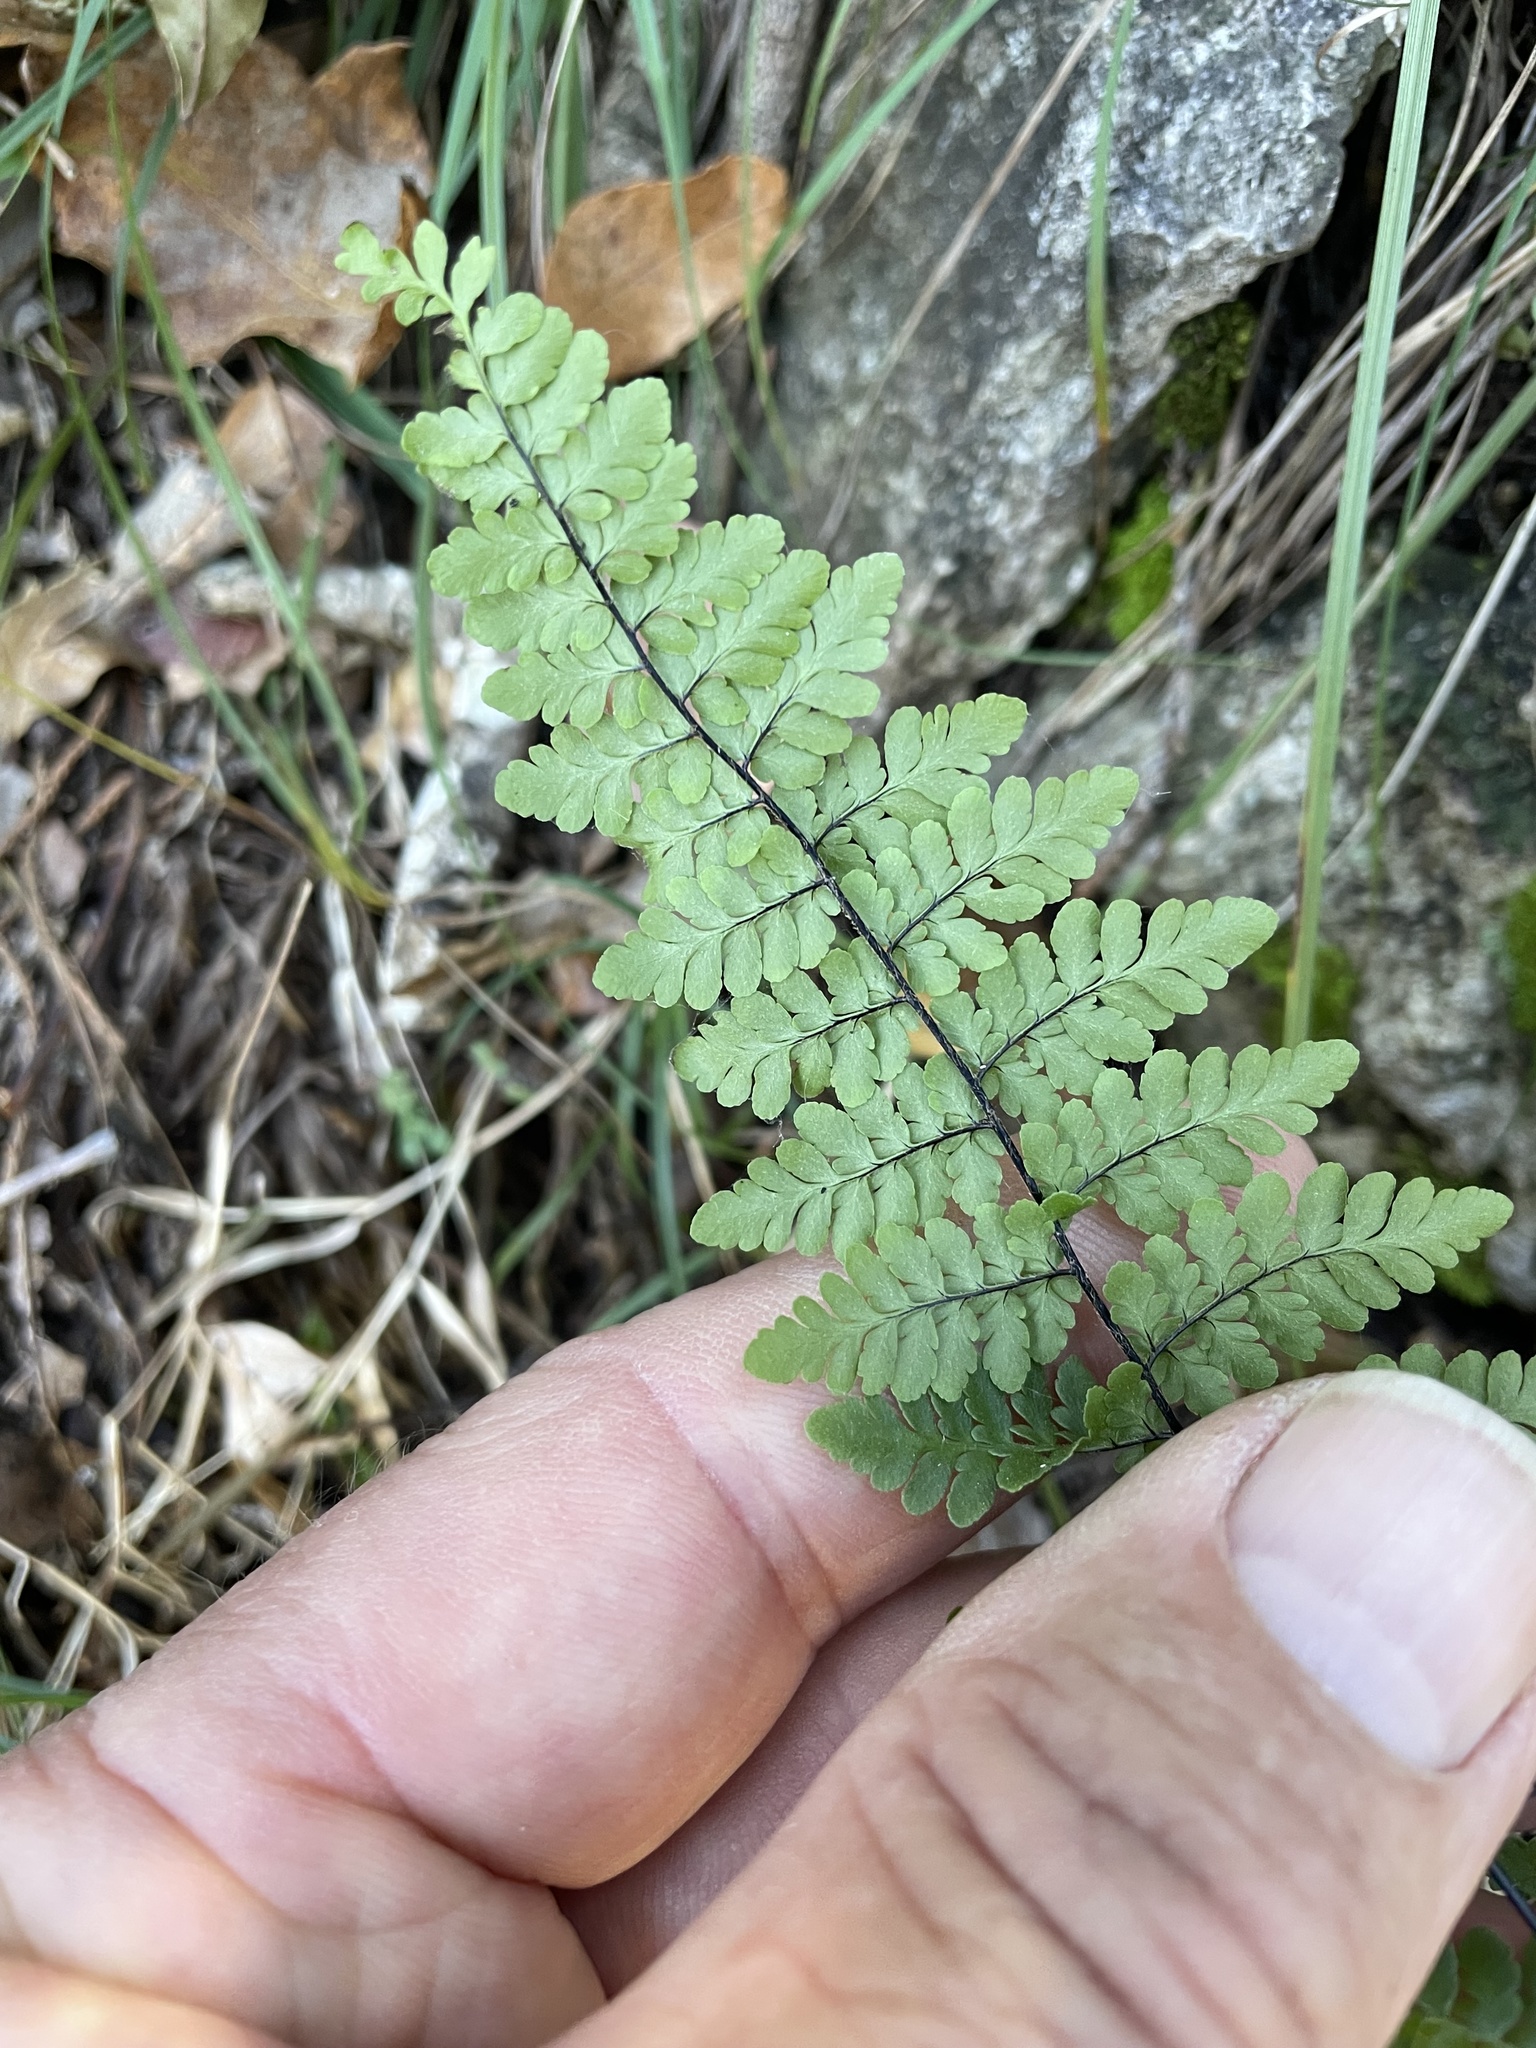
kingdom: Plantae
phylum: Tracheophyta
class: Polypodiopsida
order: Polypodiales
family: Pteridaceae
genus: Myriopteris
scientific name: Myriopteris alabamensis
